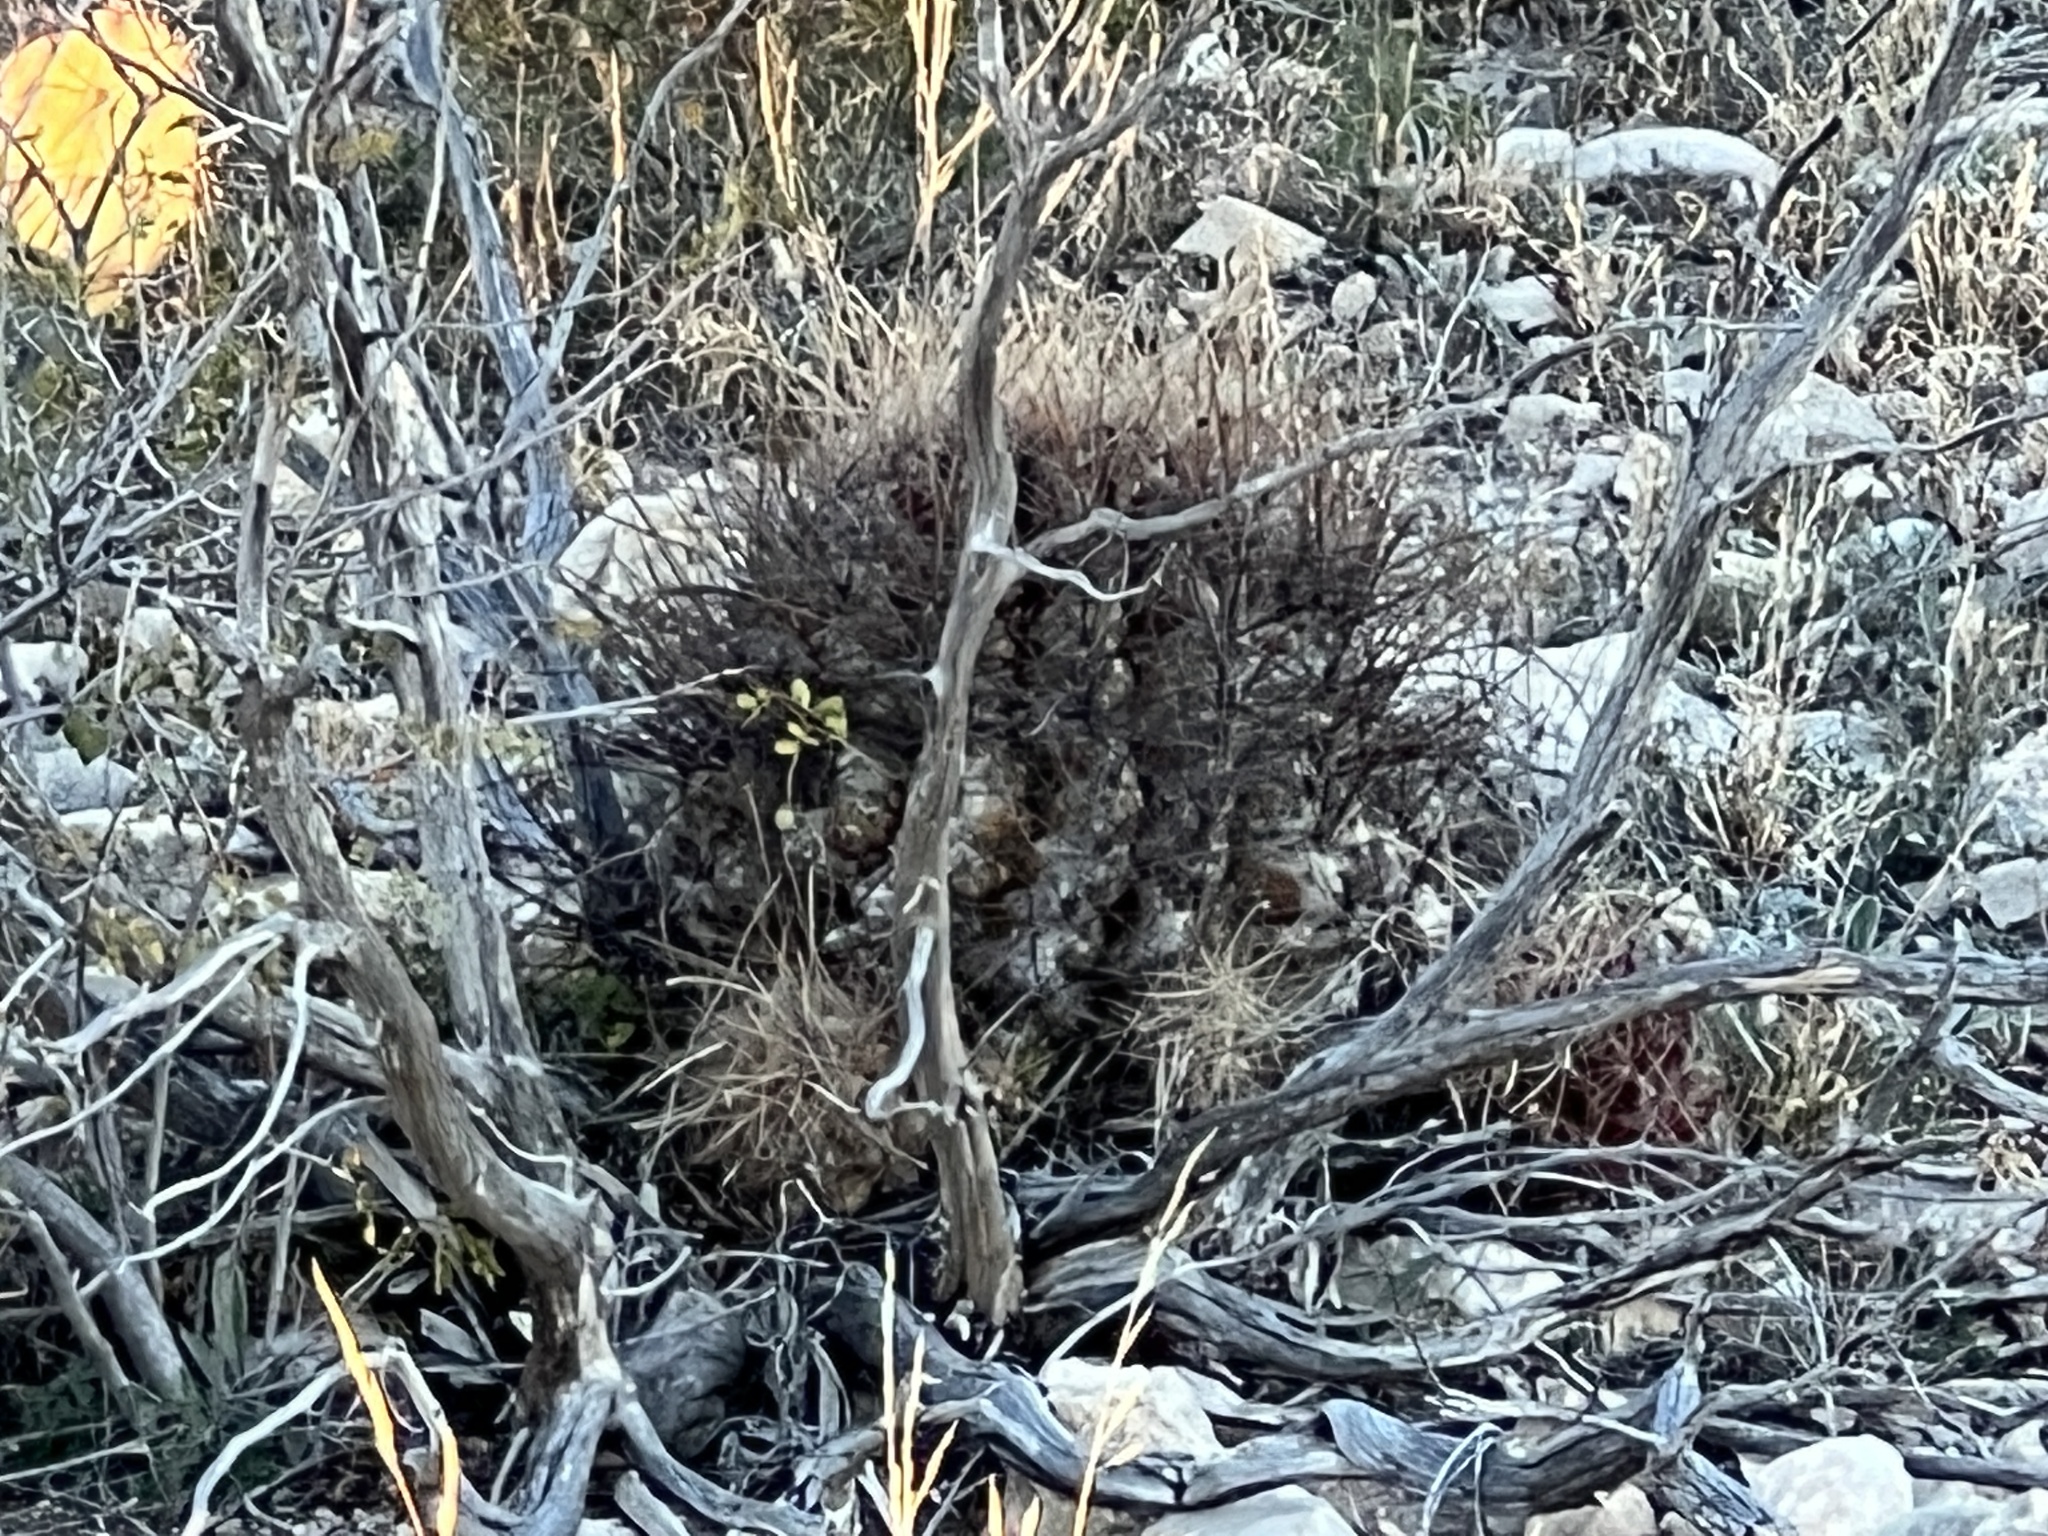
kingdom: Plantae
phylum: Tracheophyta
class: Magnoliopsida
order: Caryophyllales
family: Cactaceae
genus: Bisnaga
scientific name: Bisnaga hamatacantha
